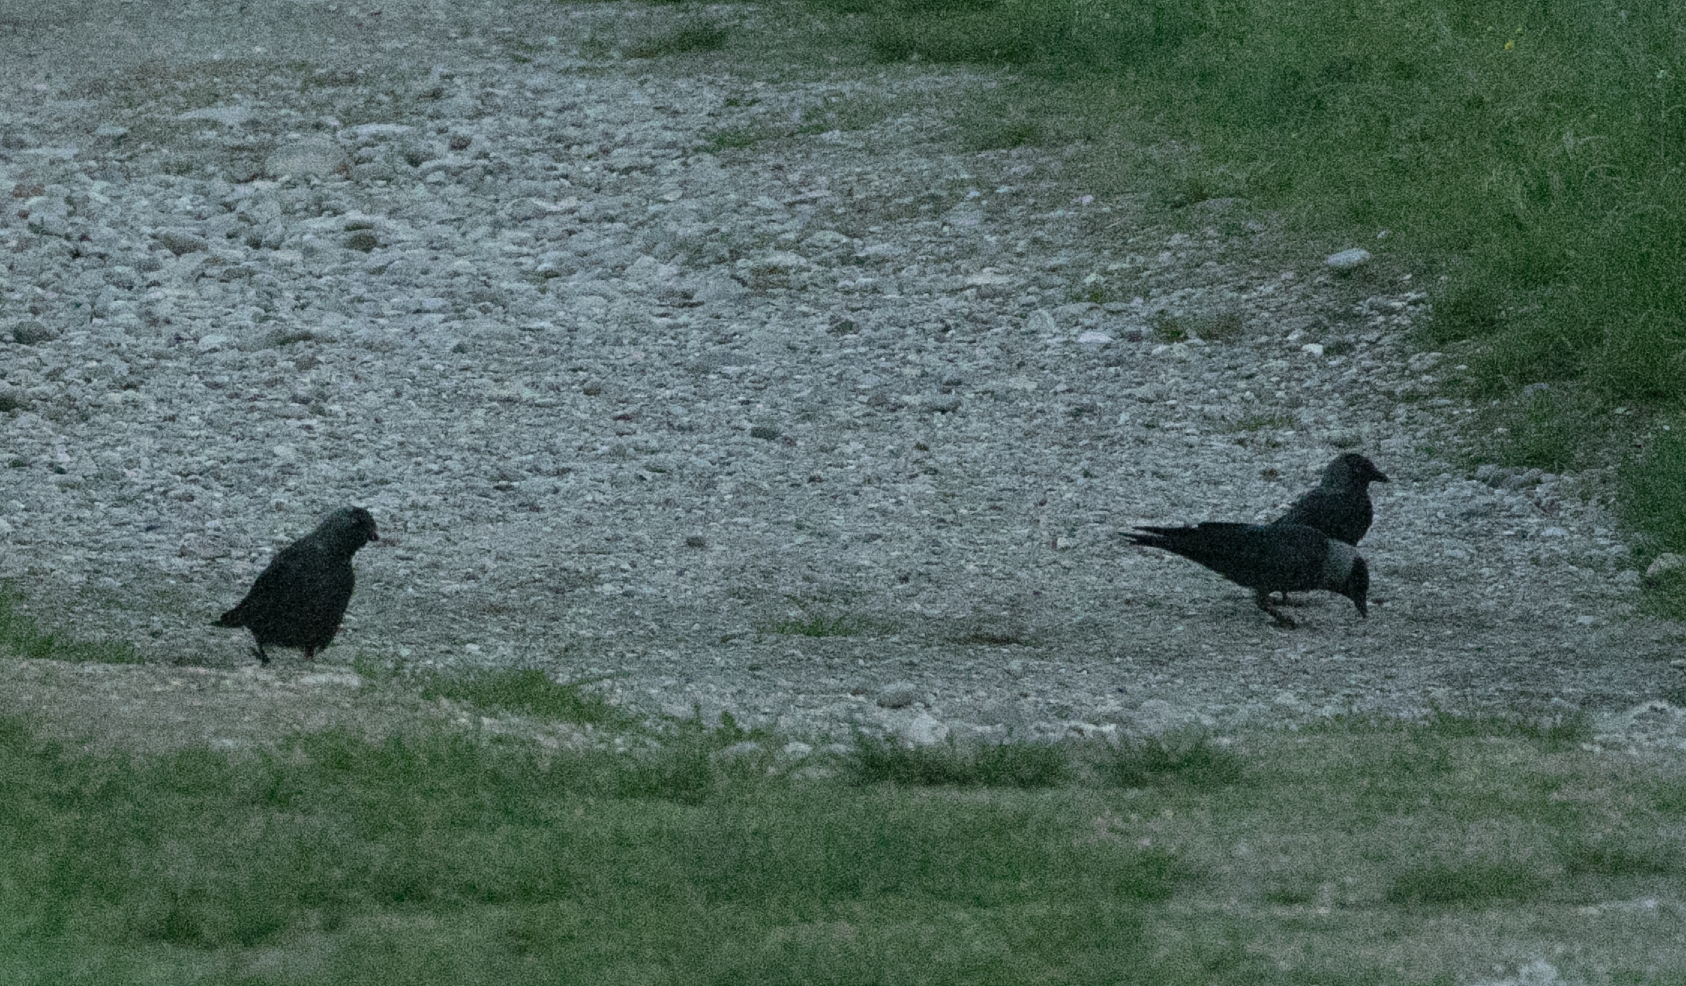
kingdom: Animalia
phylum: Chordata
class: Aves
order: Passeriformes
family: Corvidae
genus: Coloeus
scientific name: Coloeus monedula
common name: Western jackdaw
